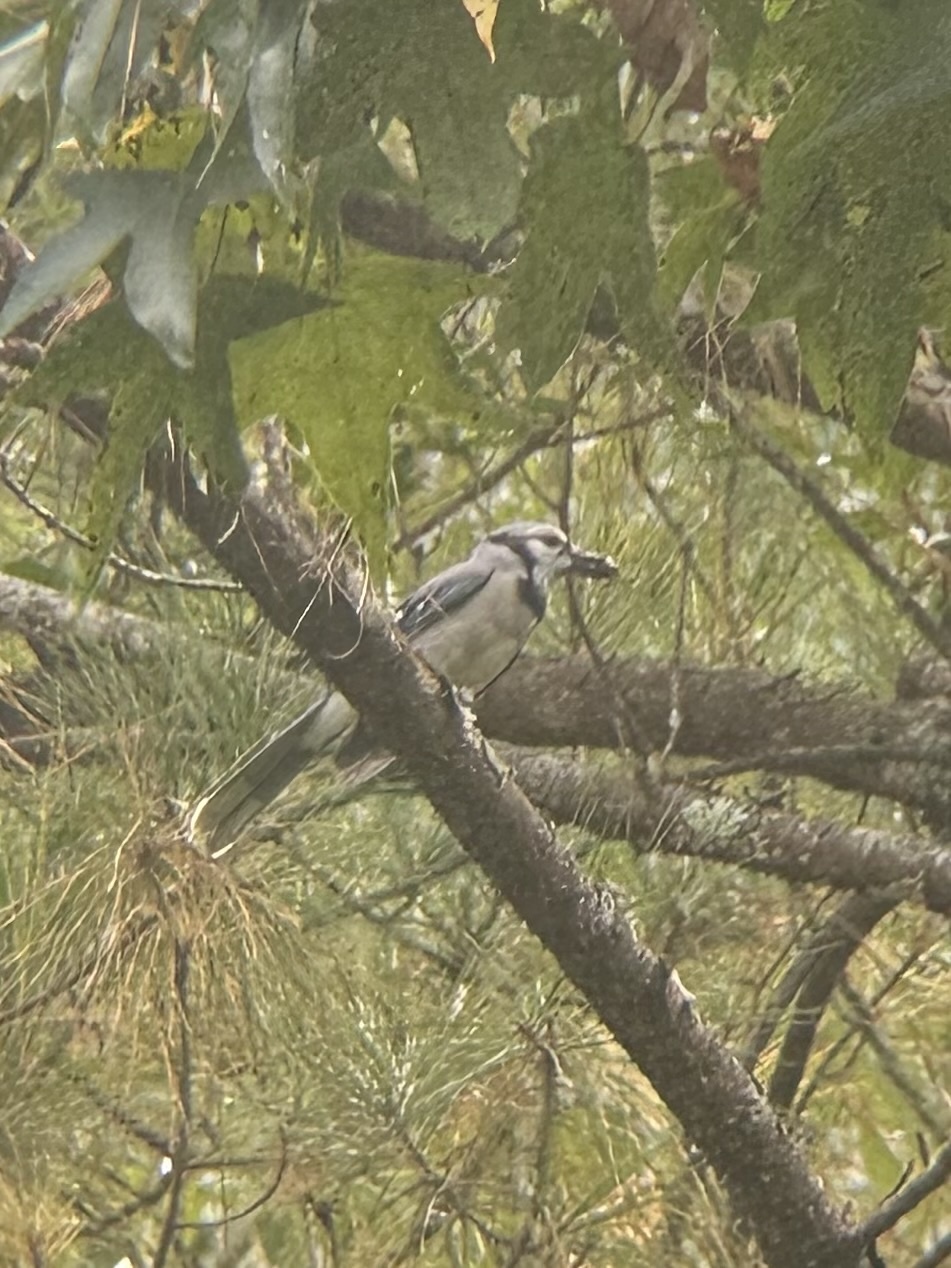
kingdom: Animalia
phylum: Chordata
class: Aves
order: Passeriformes
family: Corvidae
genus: Cyanocitta
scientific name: Cyanocitta cristata
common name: Blue jay
